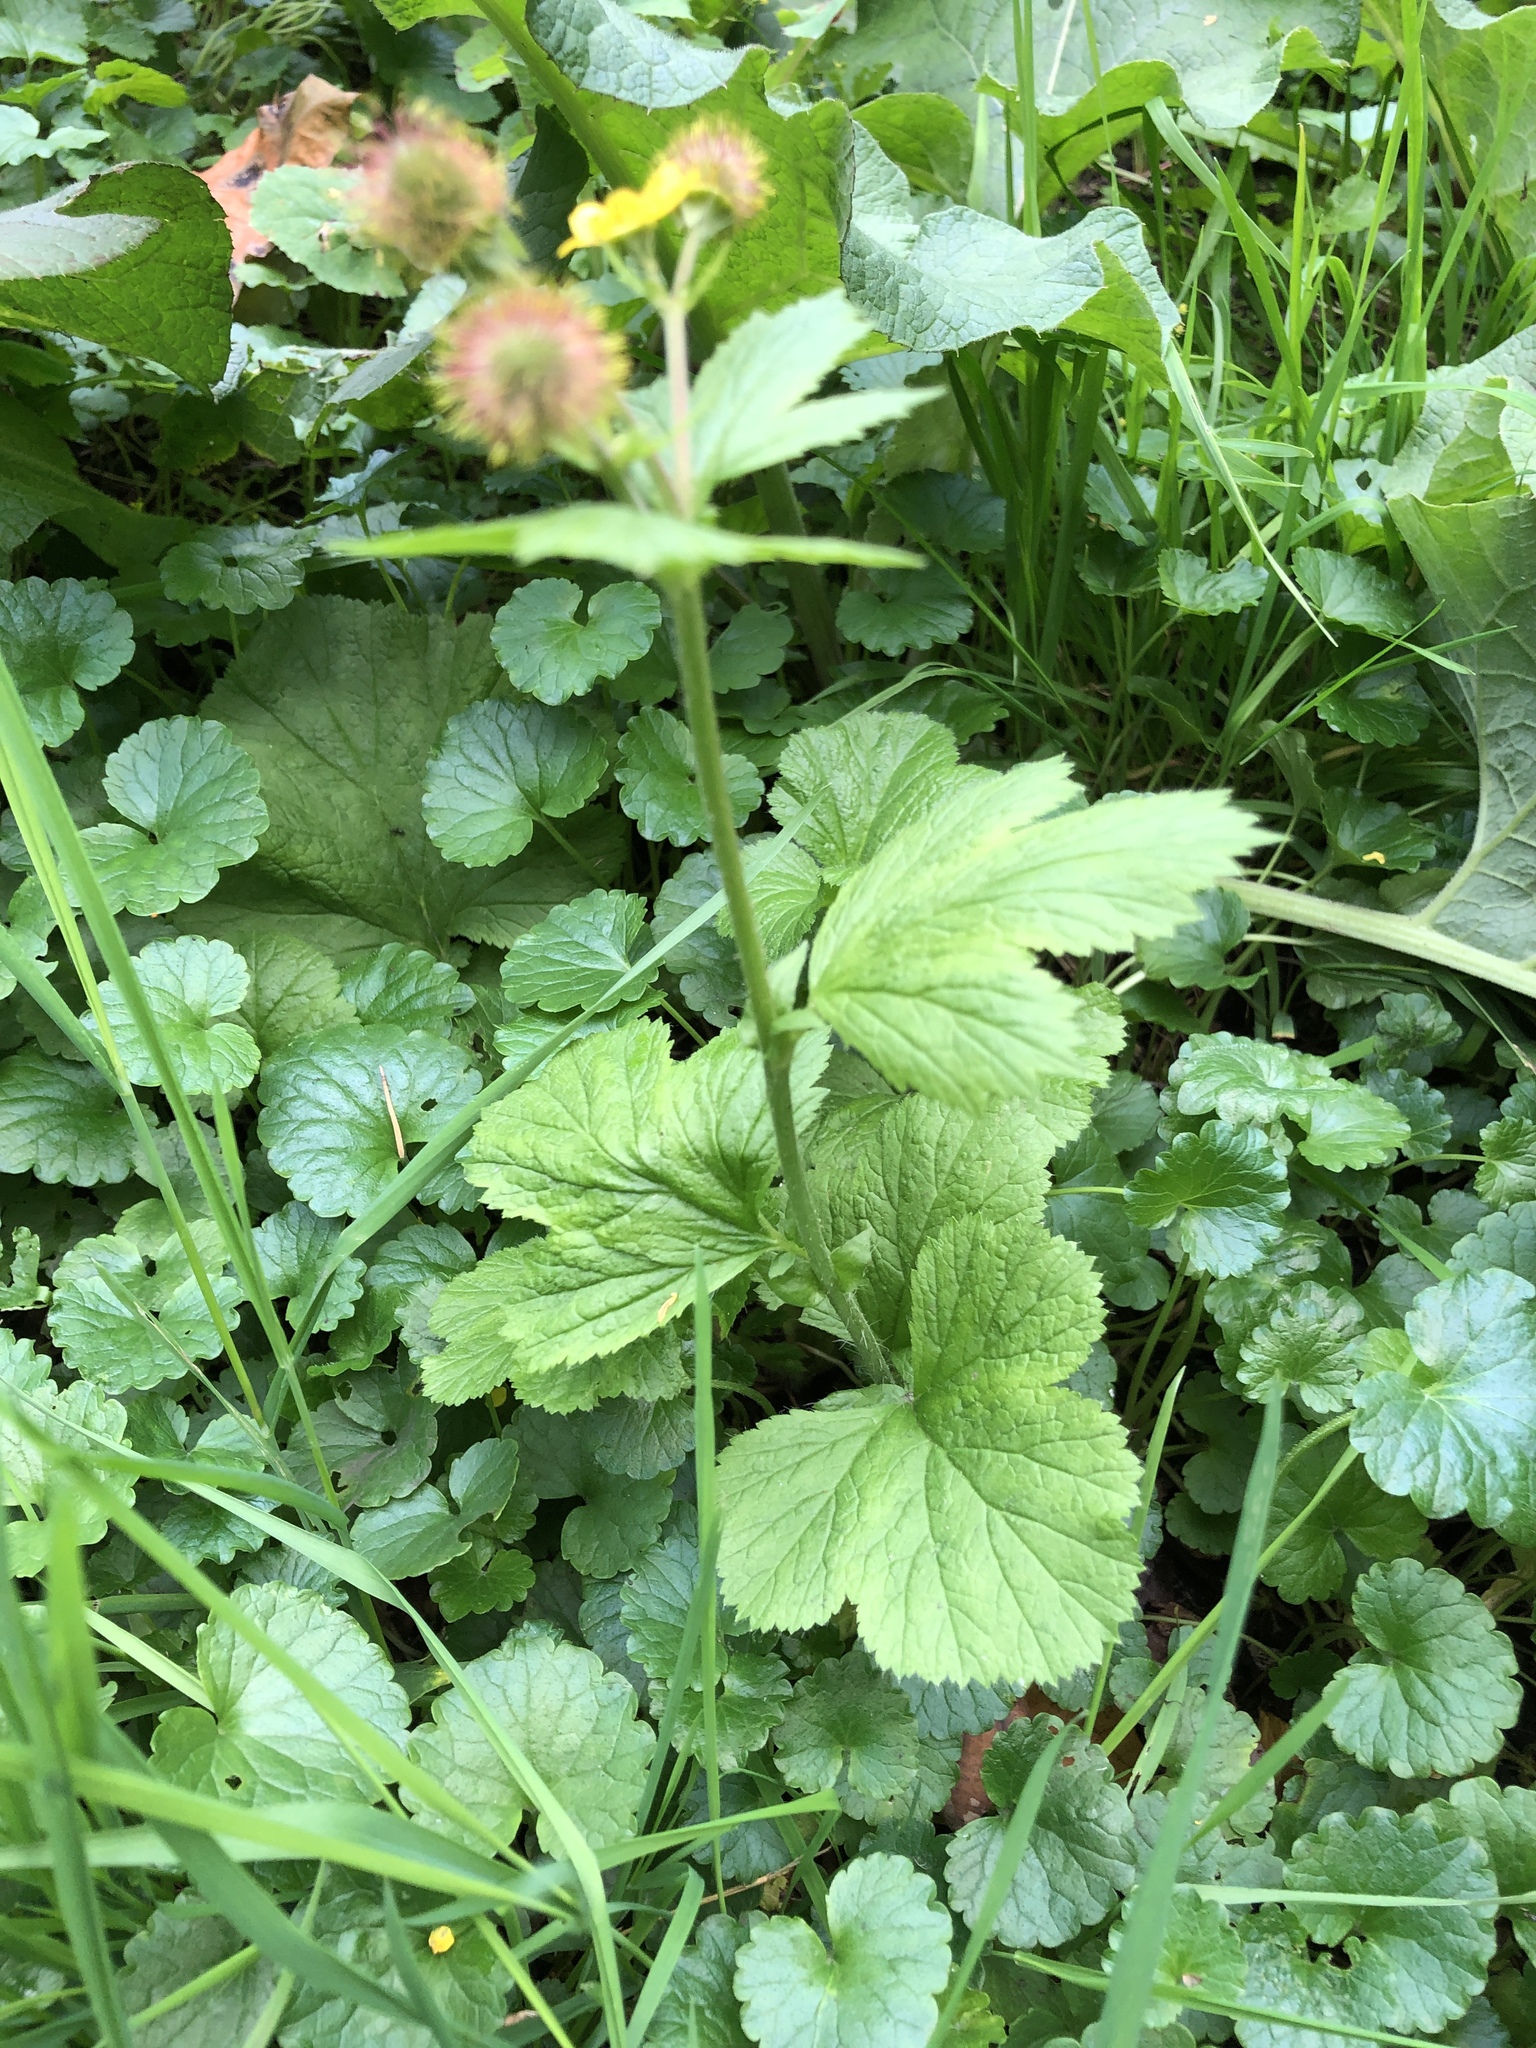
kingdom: Plantae
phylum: Tracheophyta
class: Magnoliopsida
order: Rosales
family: Rosaceae
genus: Geum
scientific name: Geum macrophyllum
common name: Large-leaved avens
